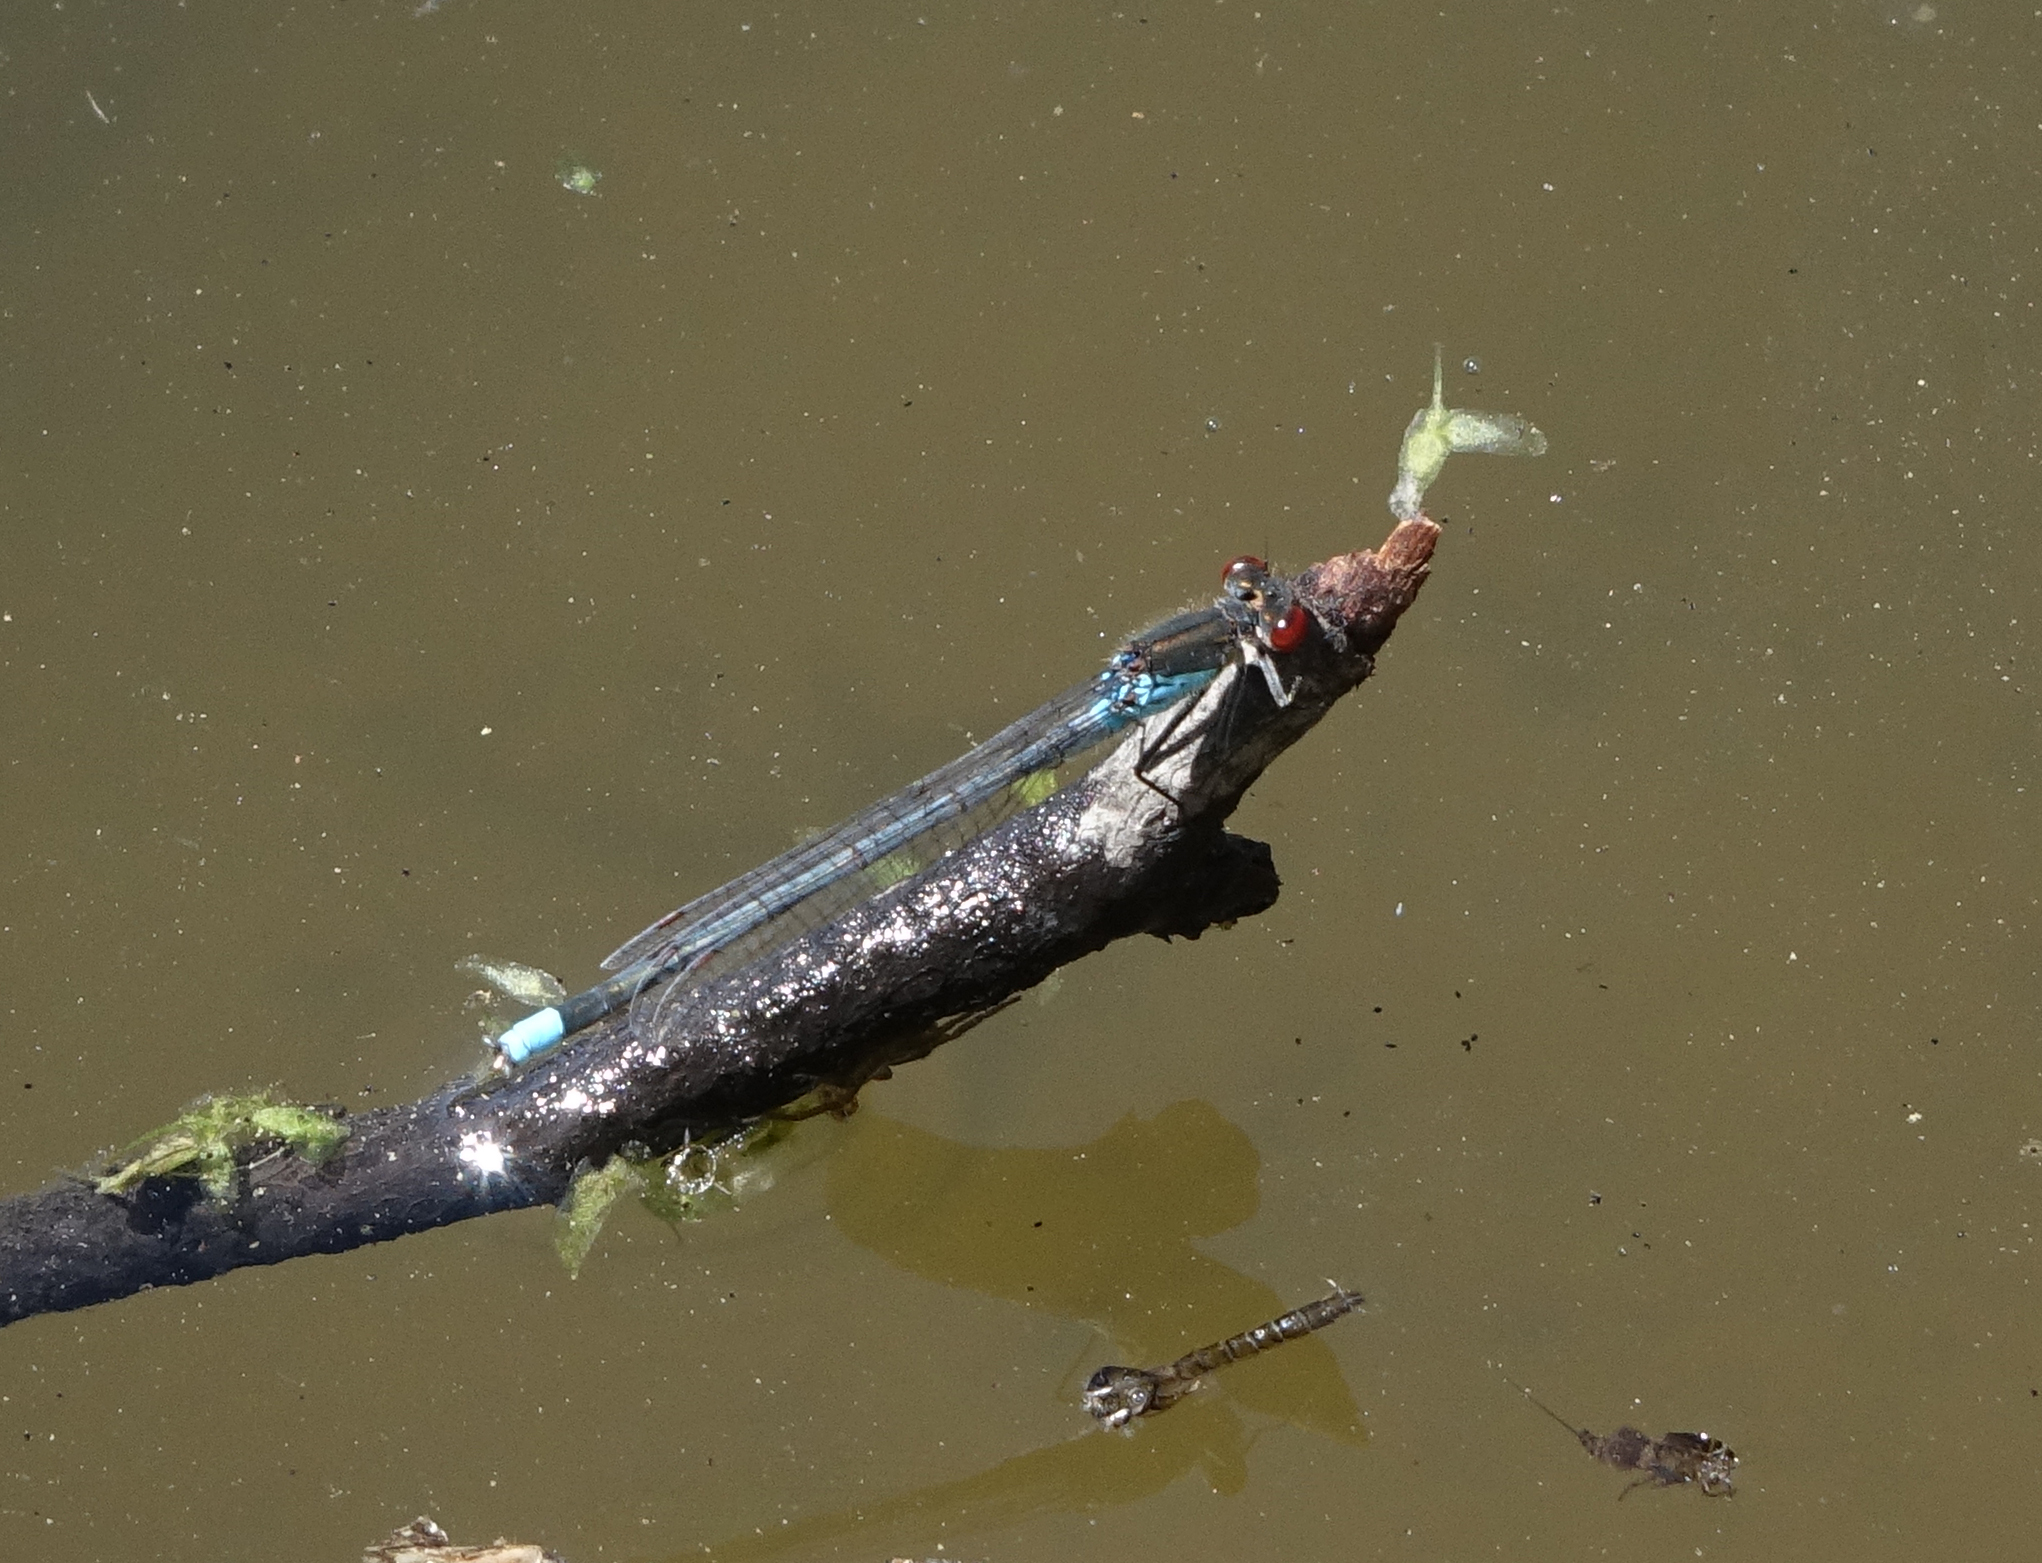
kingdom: Animalia
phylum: Arthropoda
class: Insecta
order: Odonata
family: Coenagrionidae
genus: Erythromma
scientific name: Erythromma najas
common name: Red-eyed damselfly
